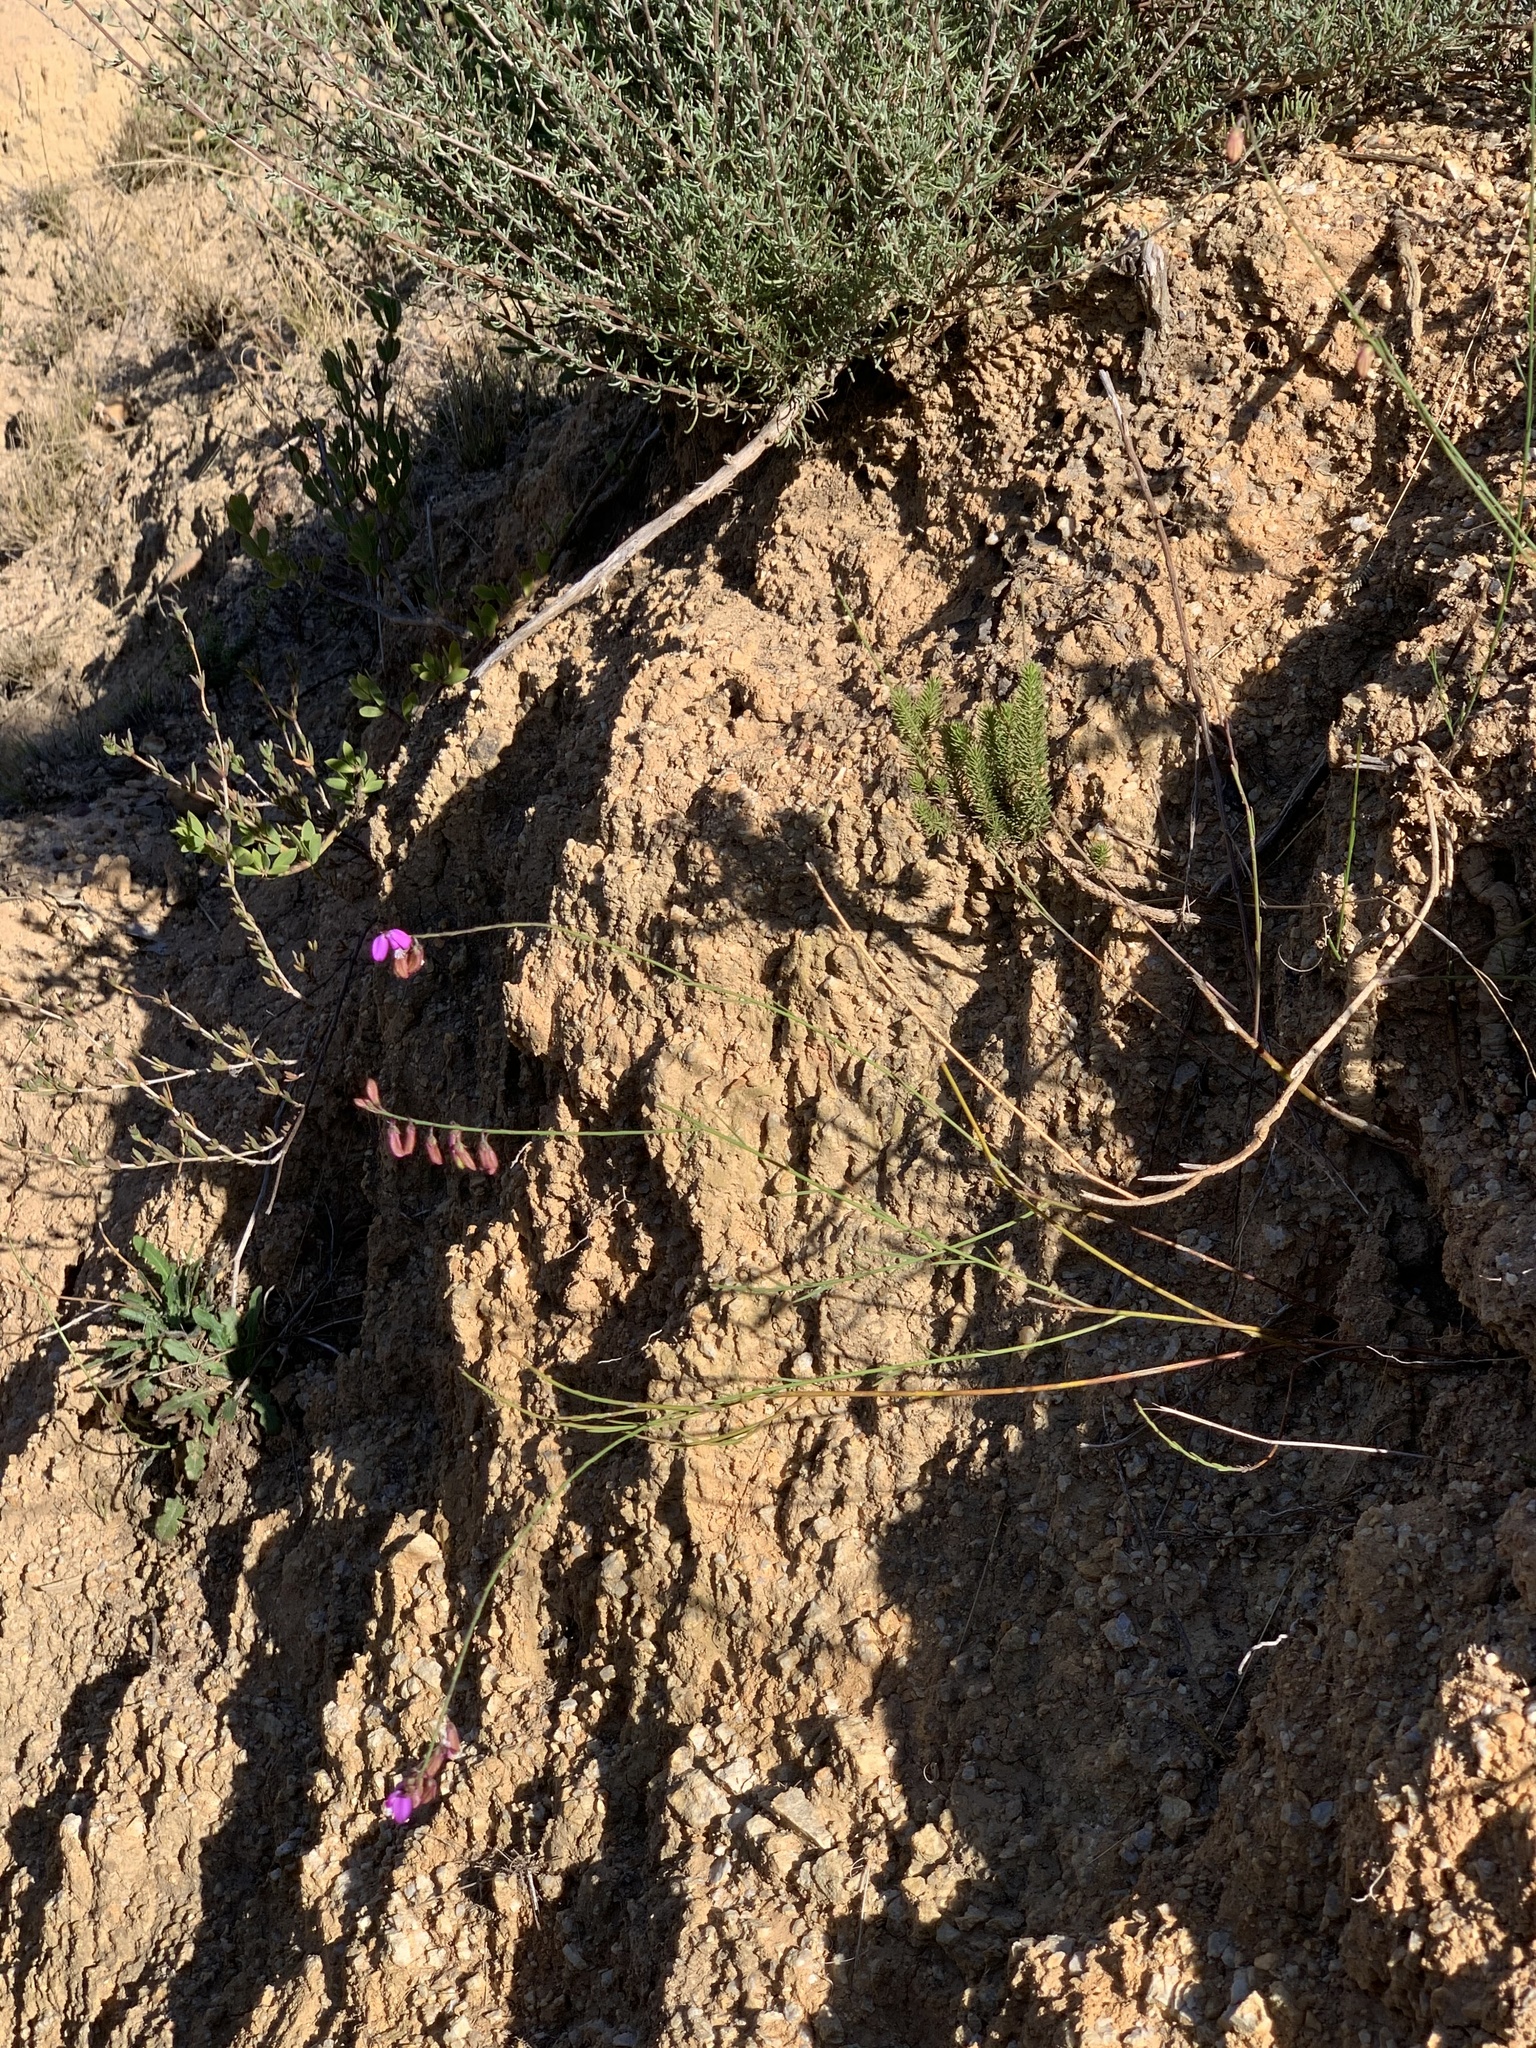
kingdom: Plantae
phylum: Tracheophyta
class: Magnoliopsida
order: Fabales
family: Polygalaceae
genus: Polygala
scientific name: Polygala garcini
